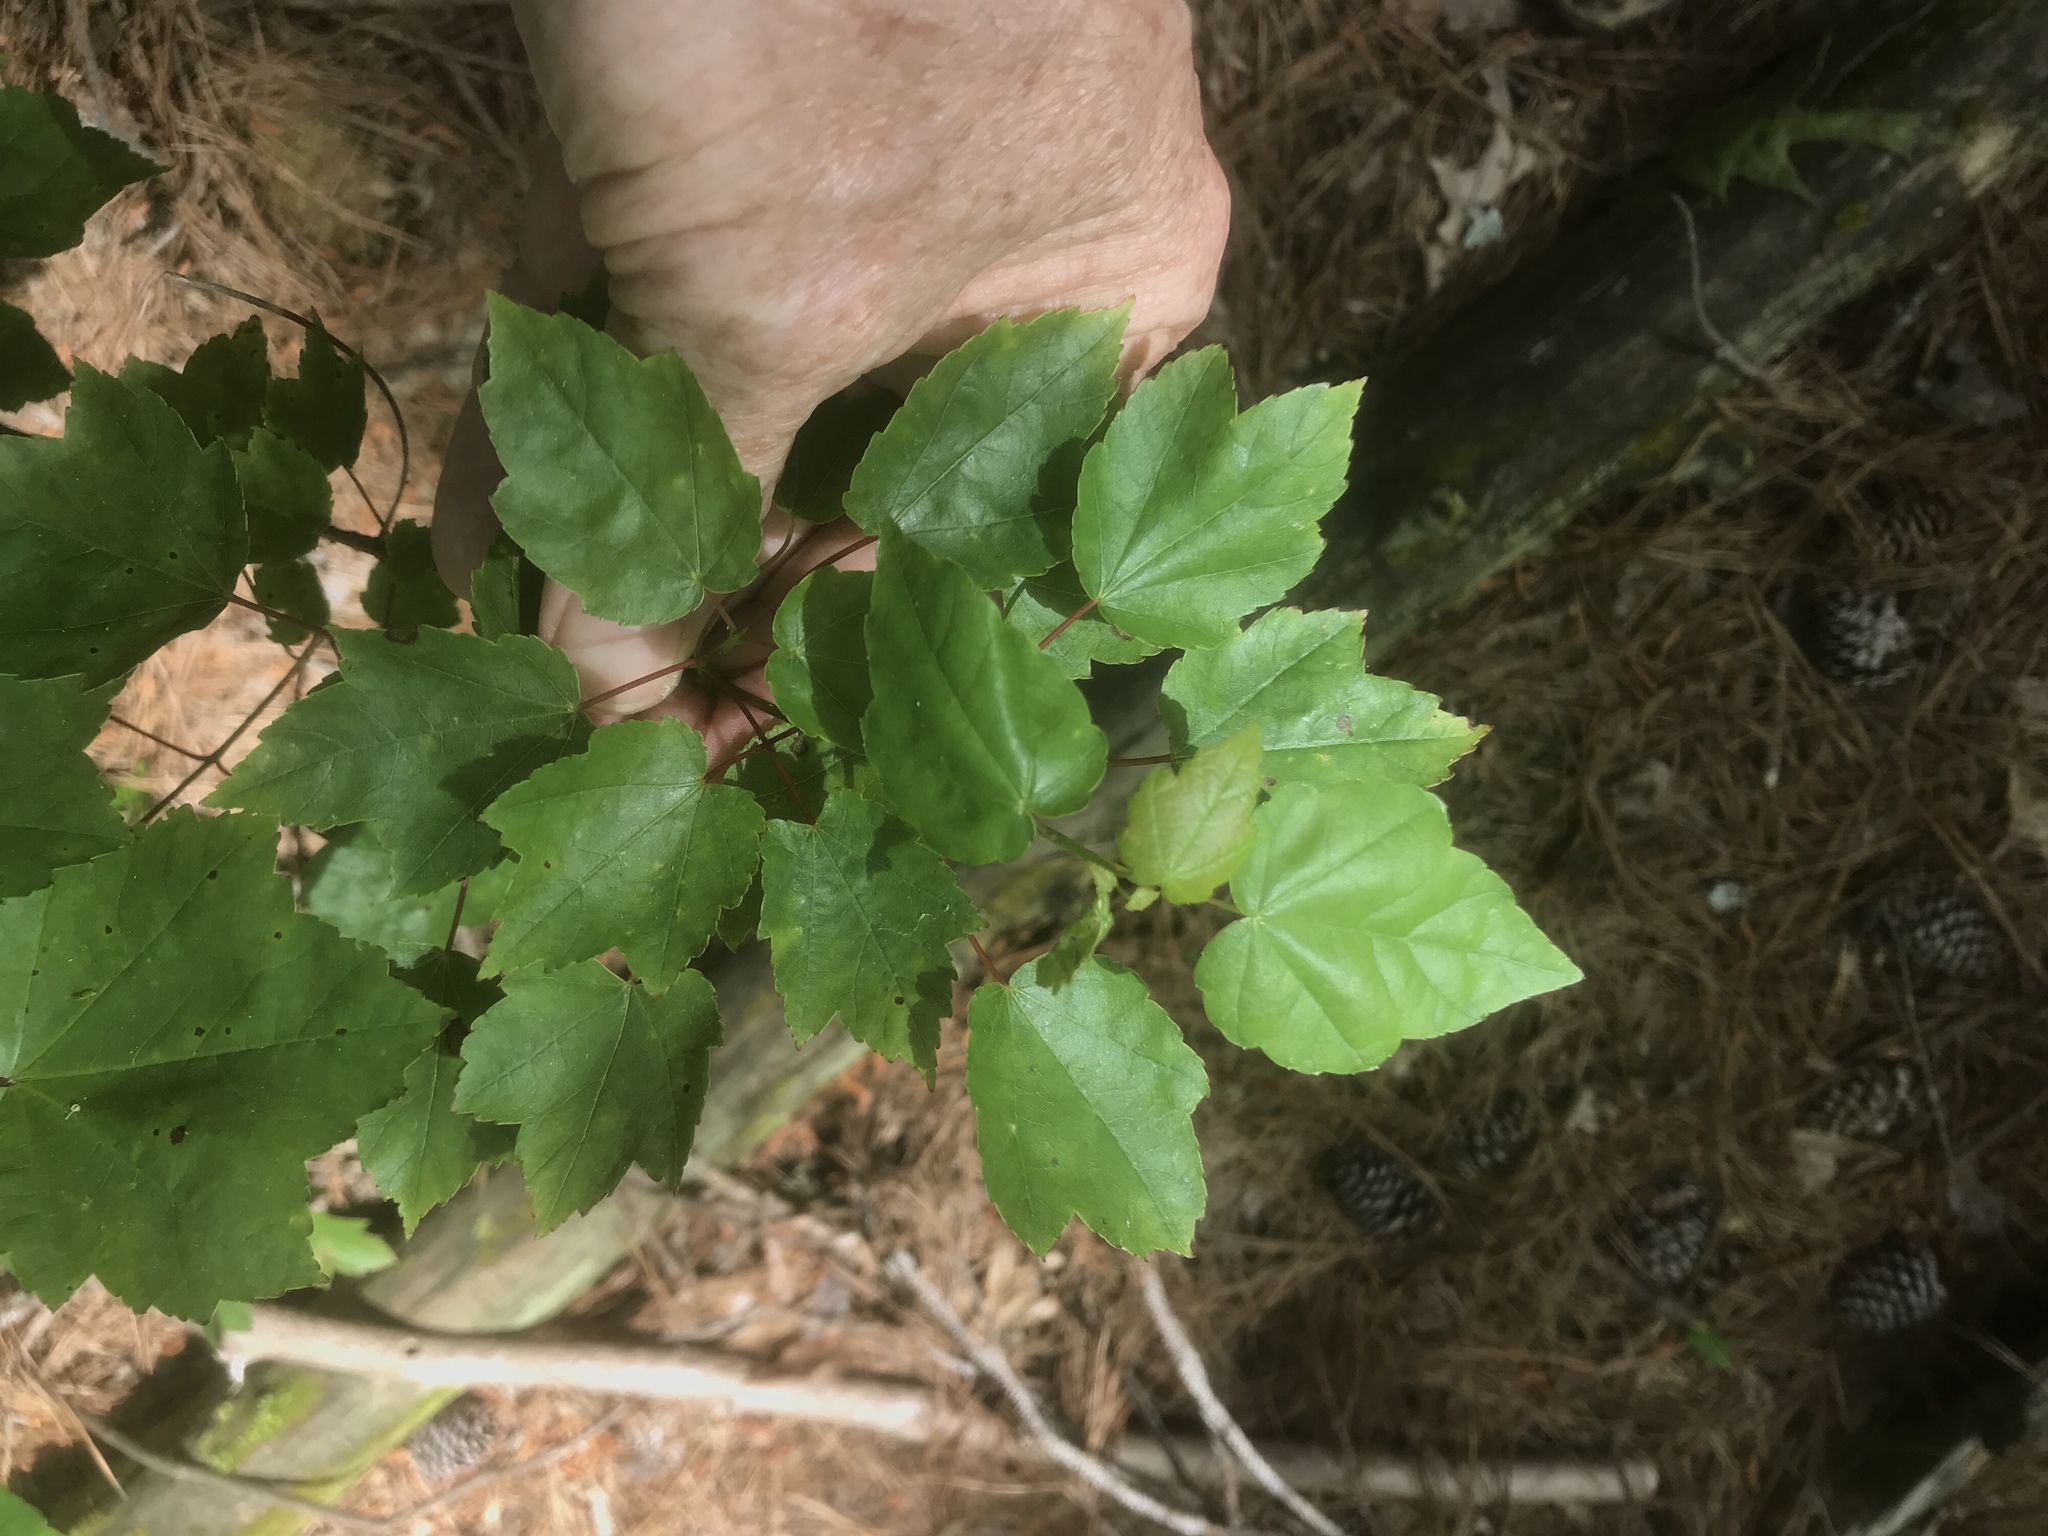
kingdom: Plantae
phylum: Tracheophyta
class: Magnoliopsida
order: Sapindales
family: Sapindaceae
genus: Acer
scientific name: Acer rubrum
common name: Red maple
